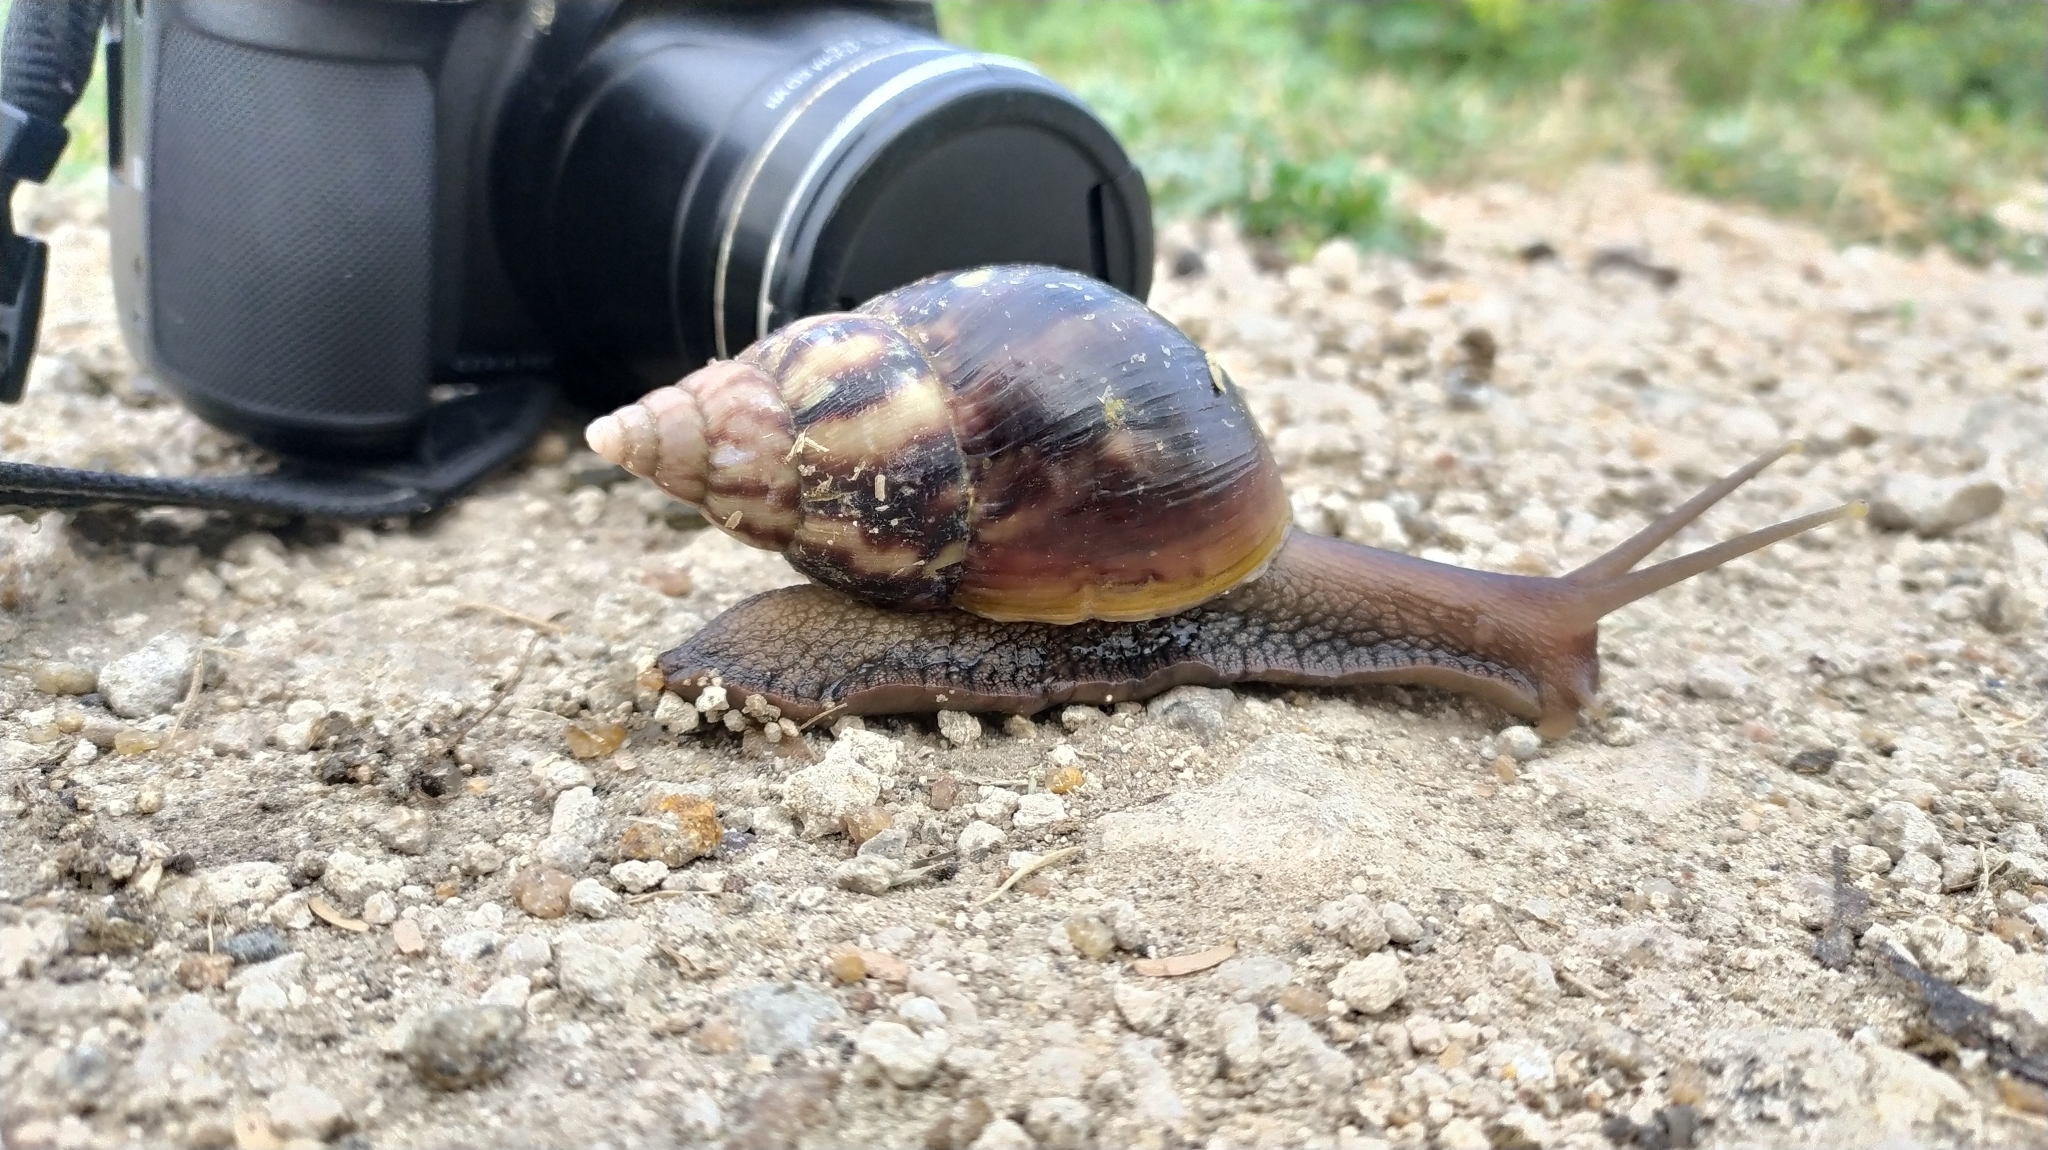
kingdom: Animalia
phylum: Mollusca
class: Gastropoda
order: Stylommatophora
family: Achatinidae
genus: Lissachatina
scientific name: Lissachatina fulica
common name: Giant african snail
